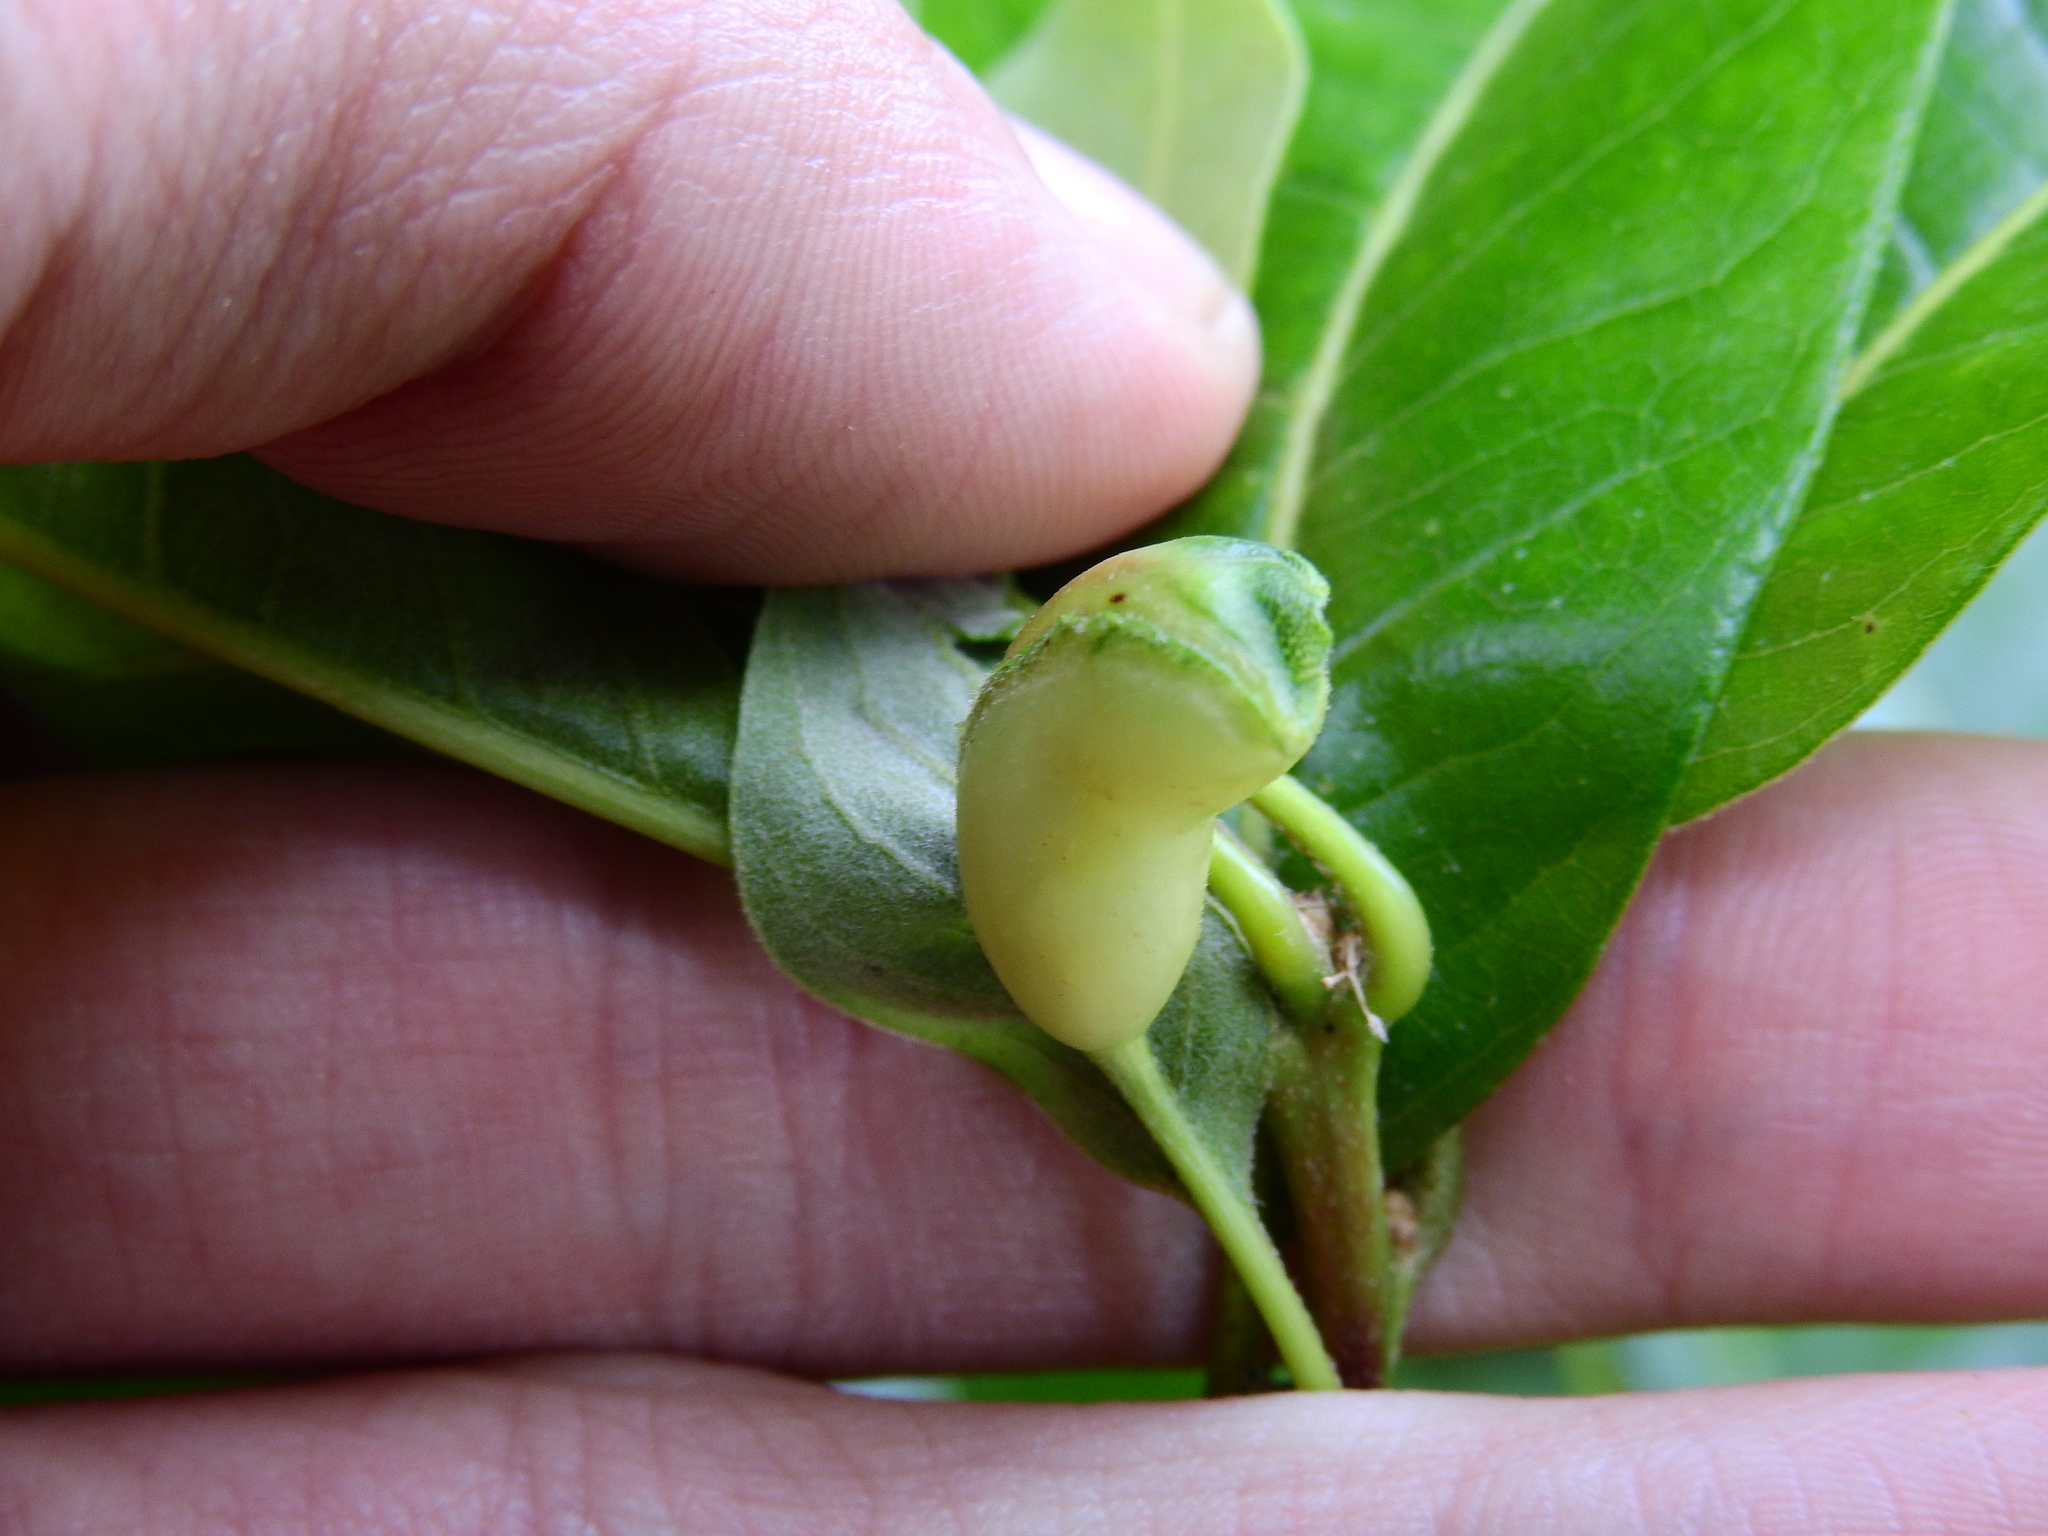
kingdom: Animalia
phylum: Arthropoda
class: Insecta
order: Hymenoptera
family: Cynipidae
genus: Callirhytis
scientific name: Callirhytis
